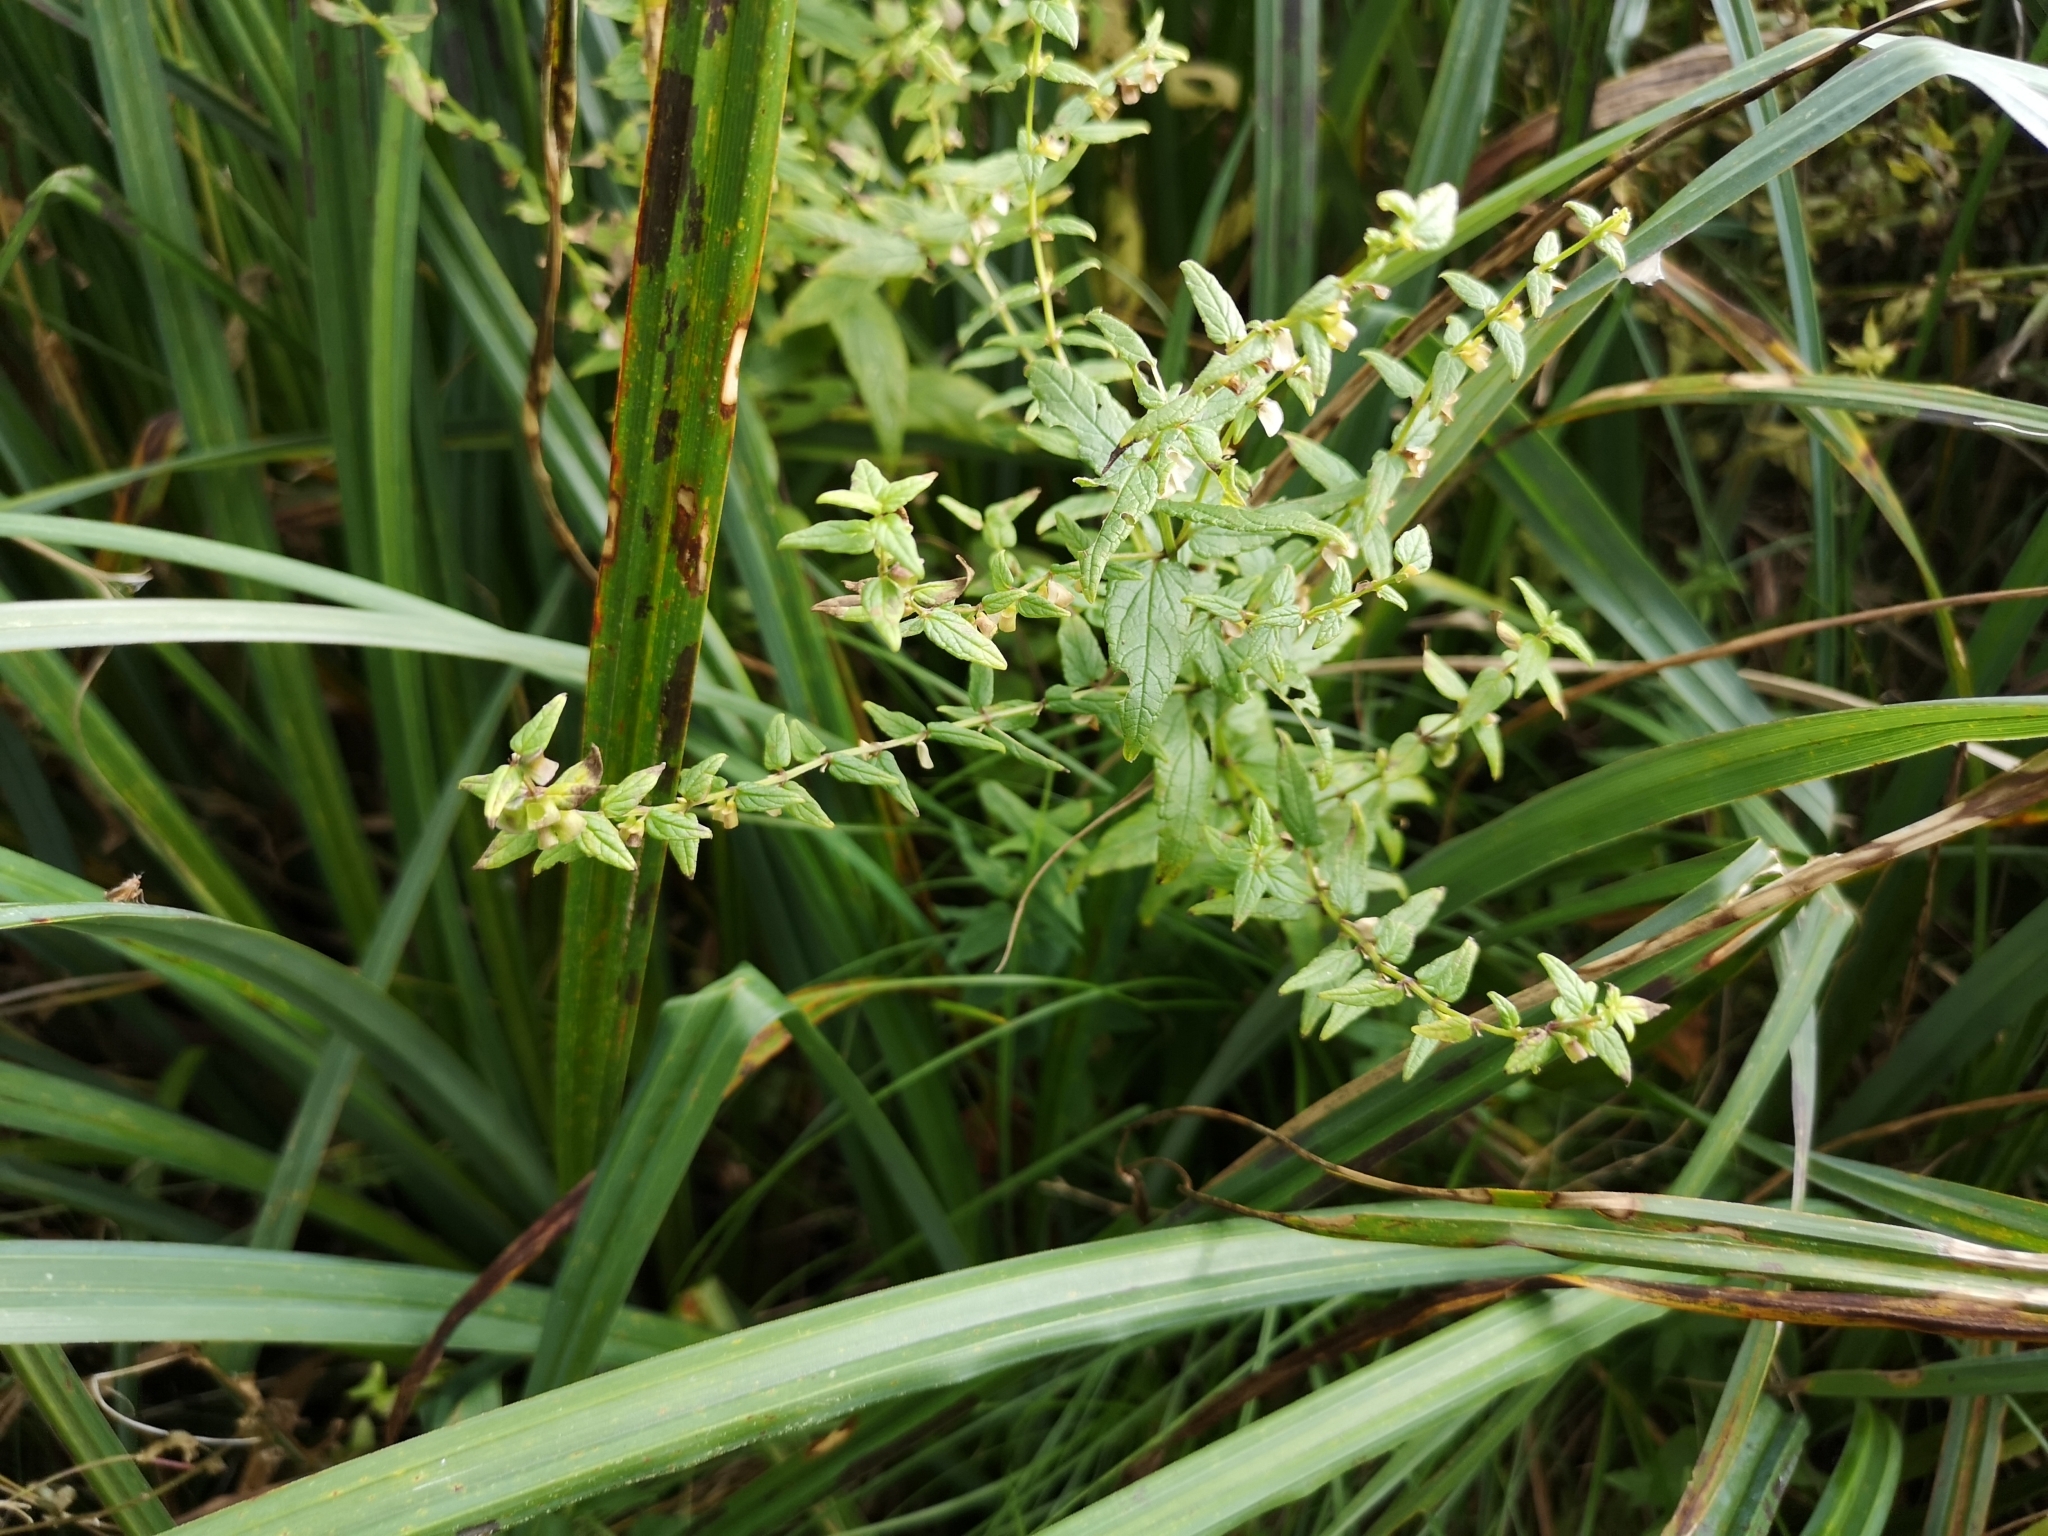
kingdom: Plantae
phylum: Tracheophyta
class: Magnoliopsida
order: Lamiales
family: Lamiaceae
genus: Scutellaria
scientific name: Scutellaria galericulata
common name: Skullcap
